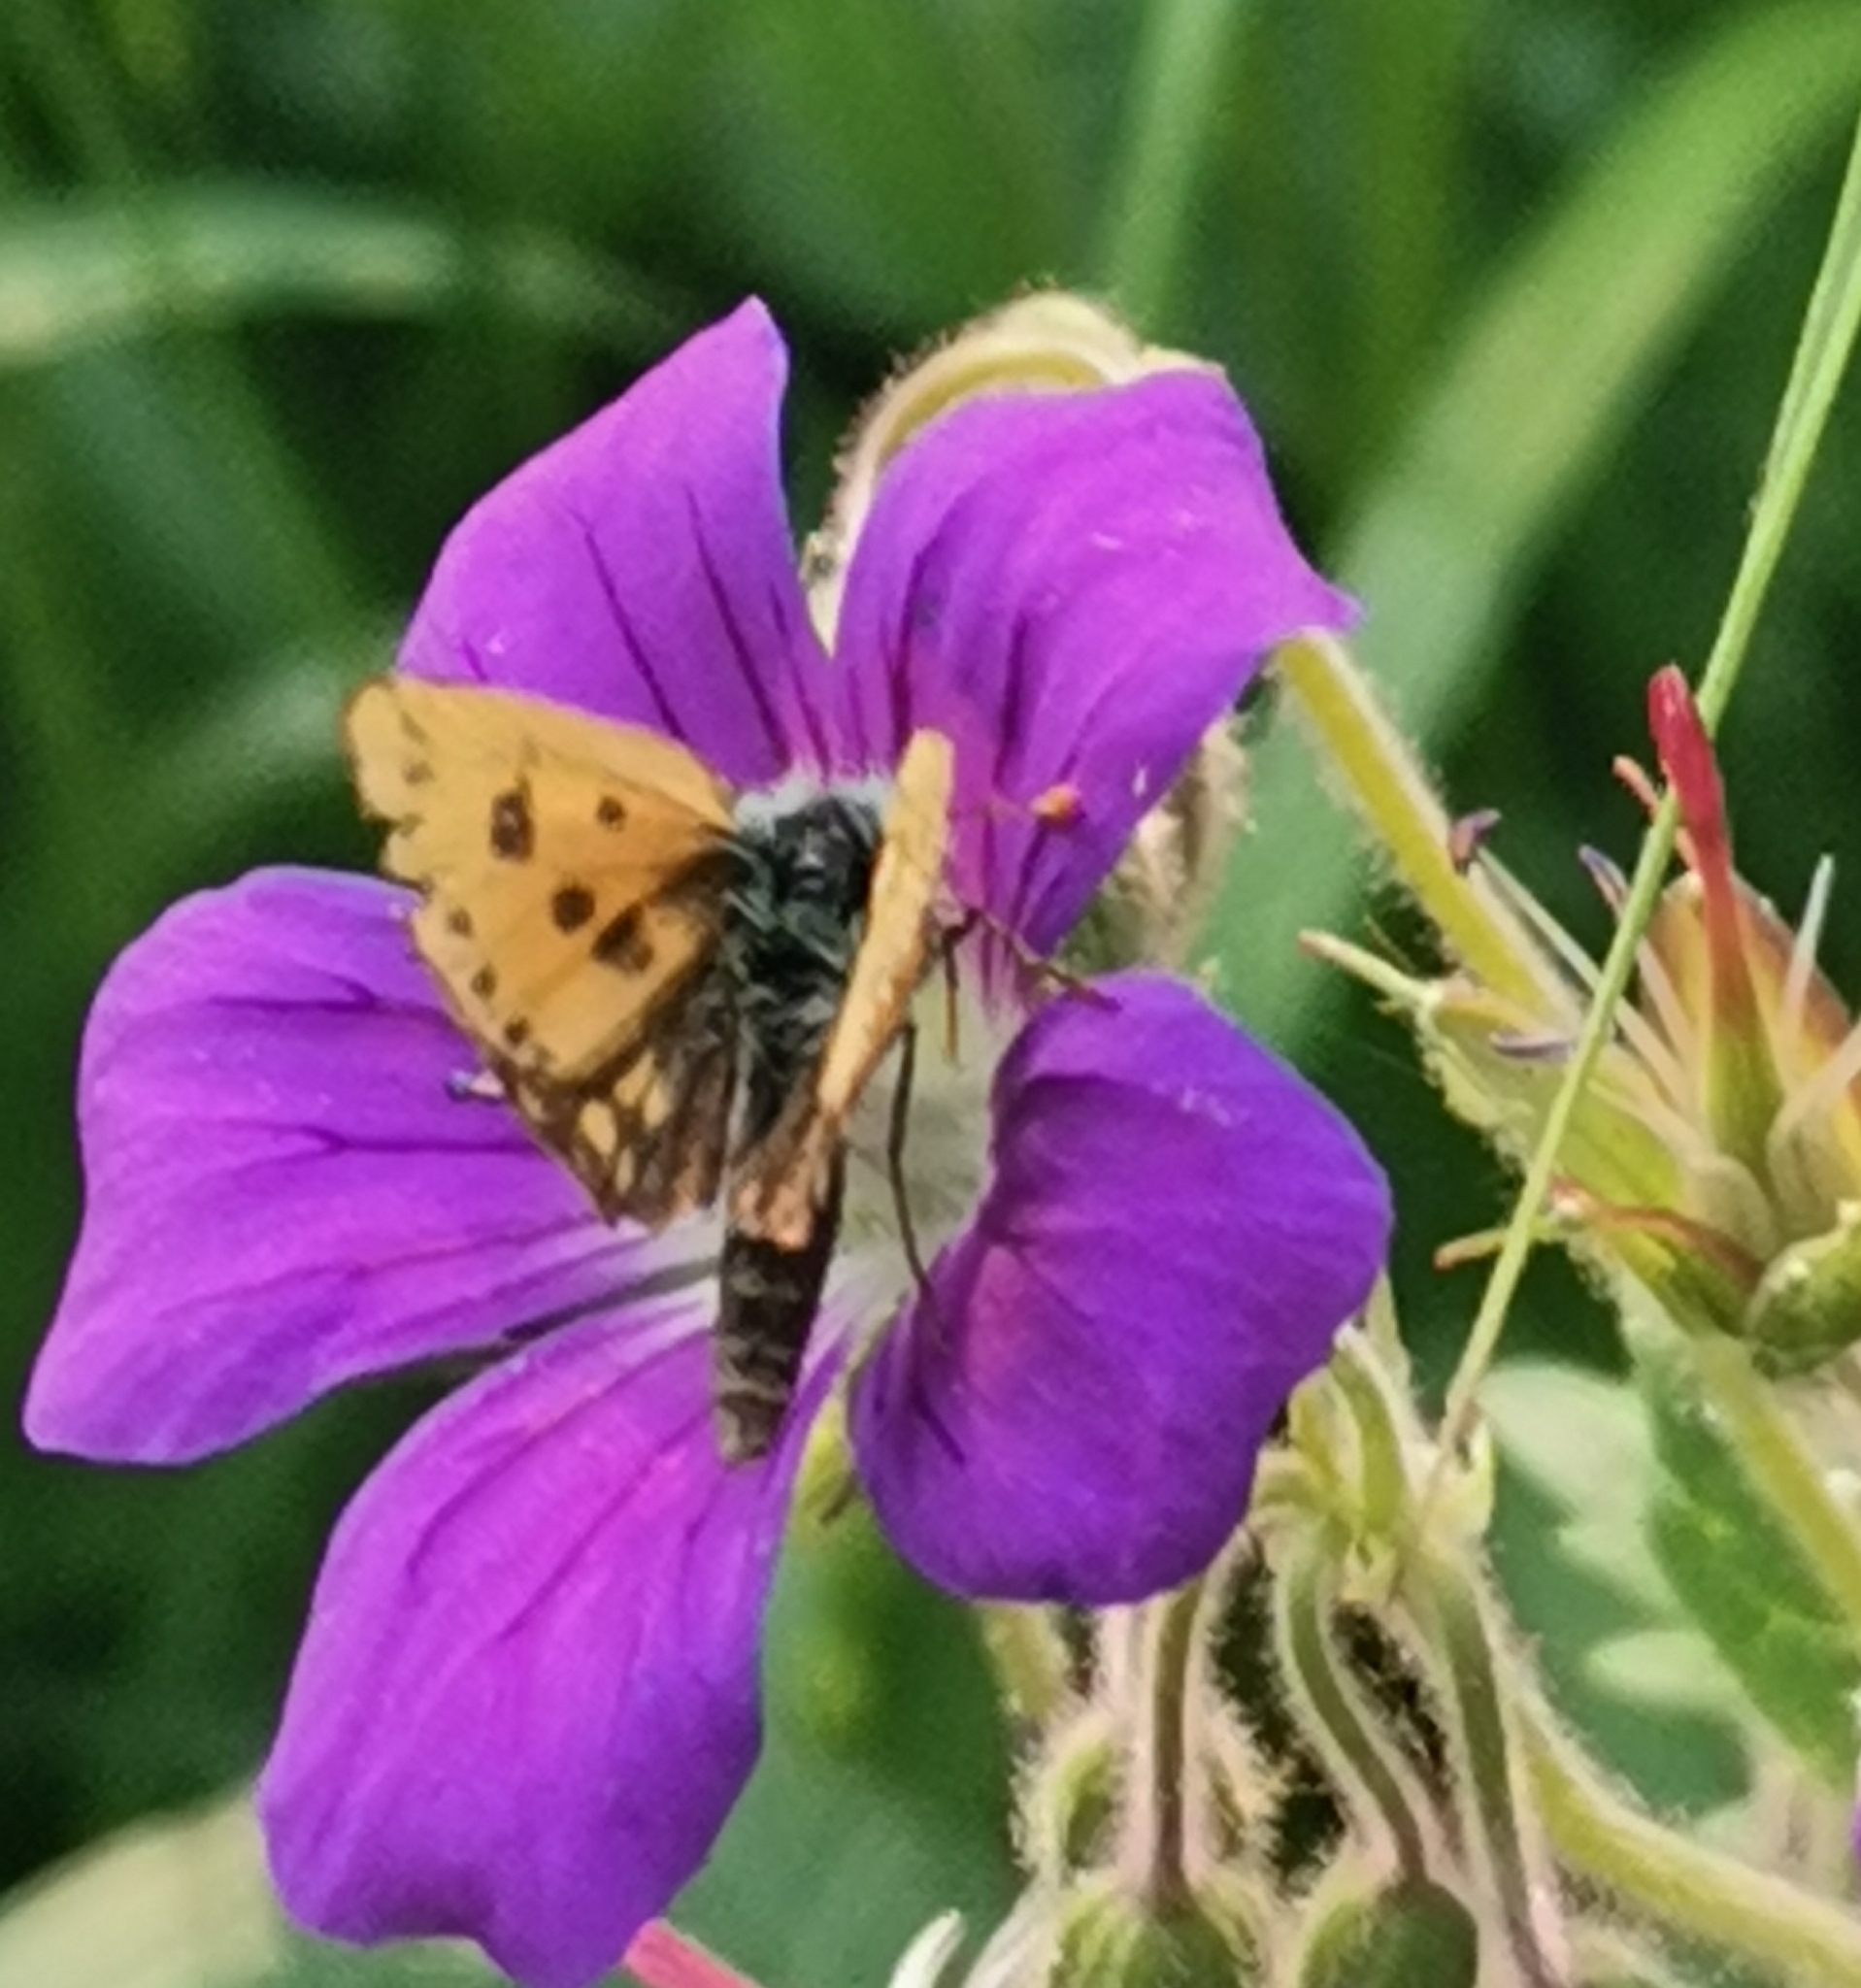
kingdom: Animalia
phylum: Arthropoda
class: Insecta
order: Lepidoptera
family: Hesperiidae
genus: Carterocephalus
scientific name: Carterocephalus silvicola
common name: Northern chequered skipper
